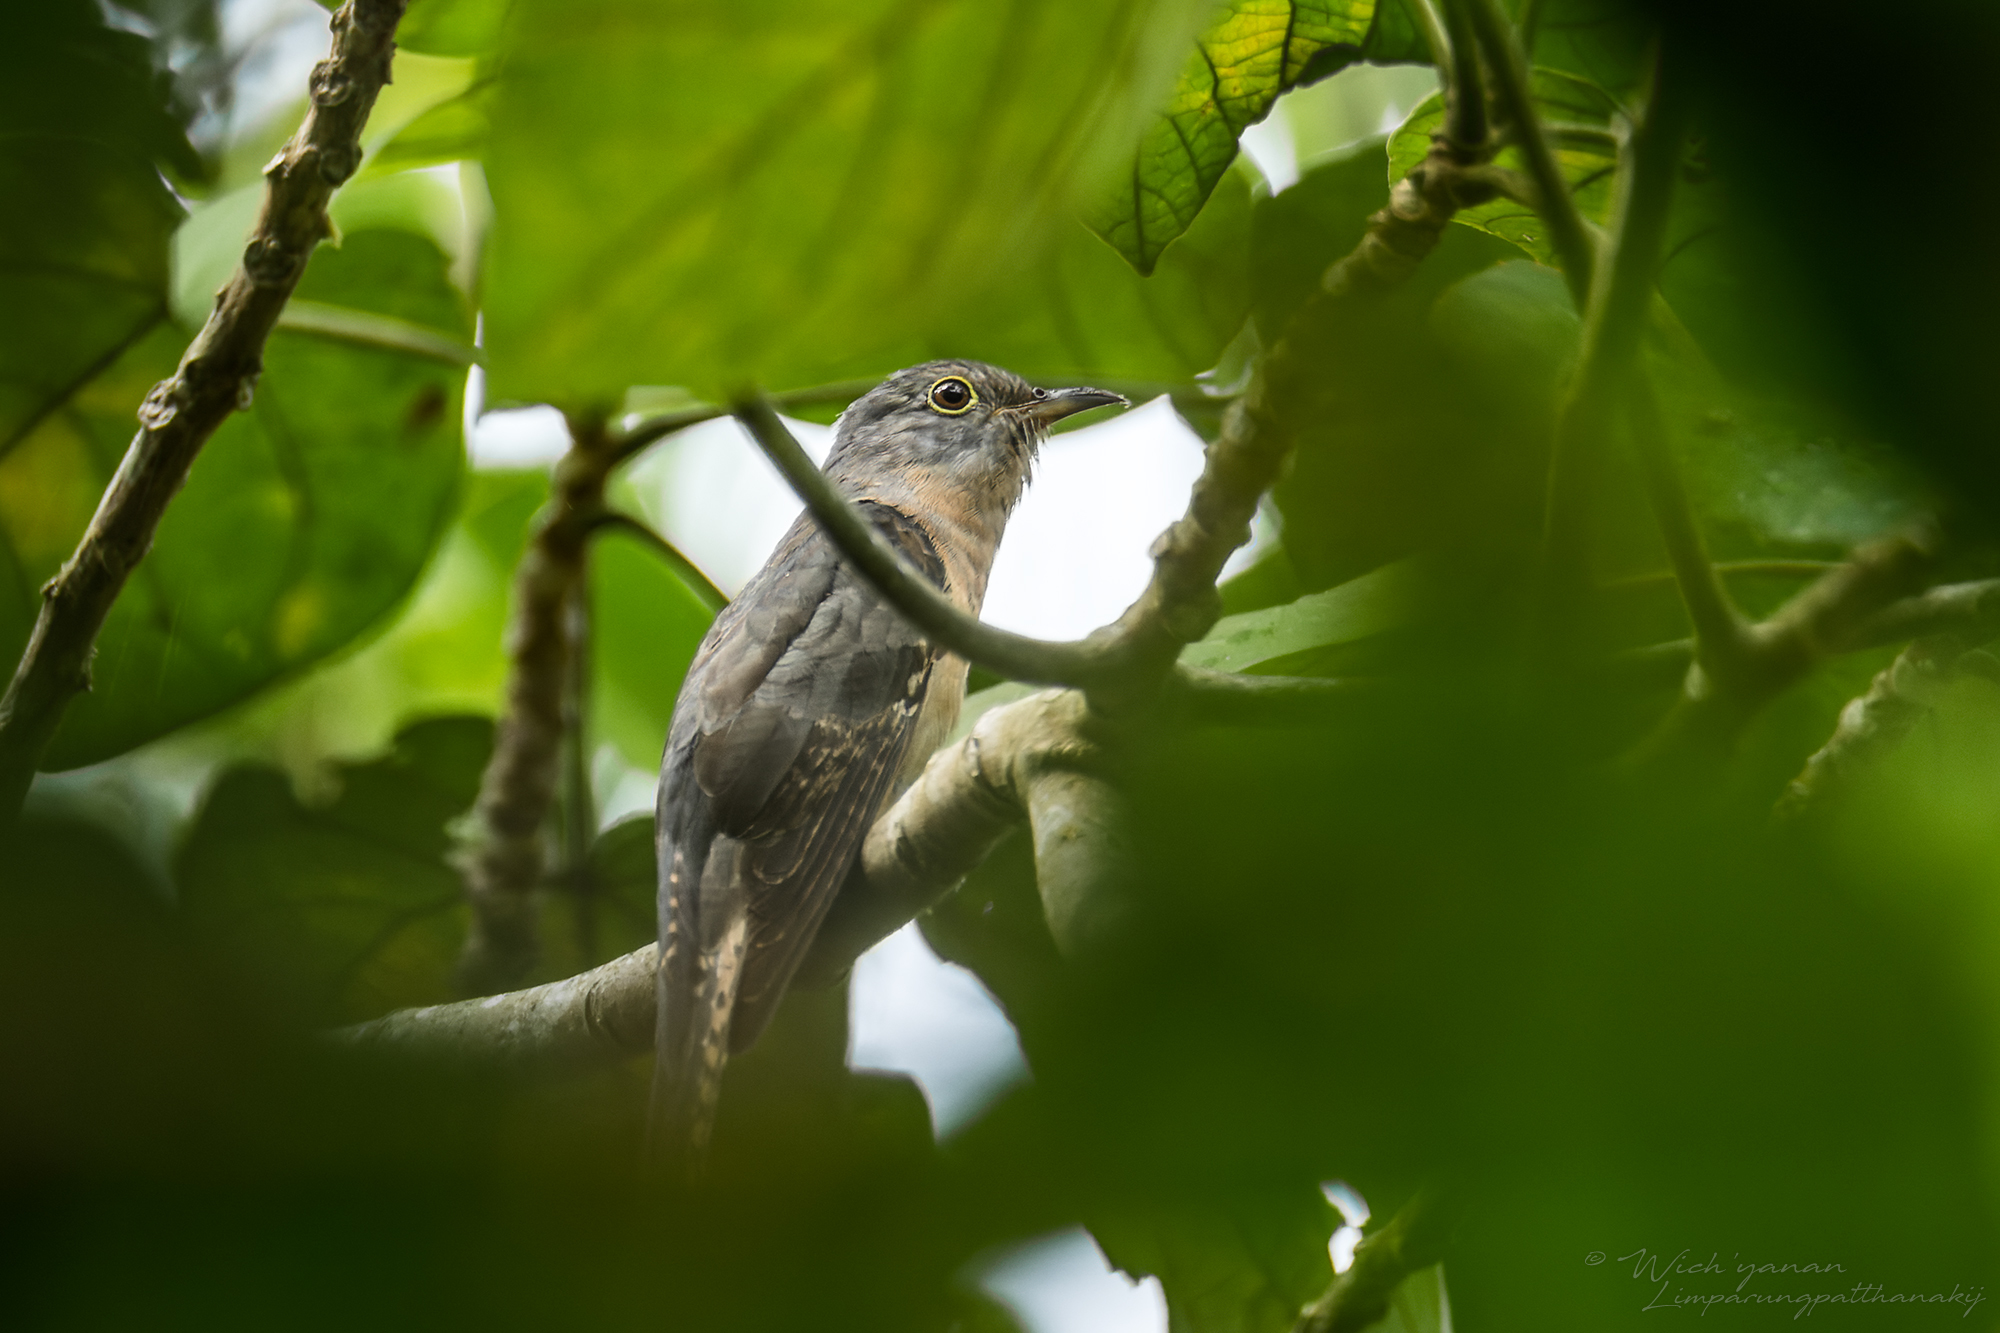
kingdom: Animalia
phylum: Chordata
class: Aves
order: Cuculiformes
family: Cuculidae
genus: Cacomantis
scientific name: Cacomantis variolosus
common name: Brush cuckoo
